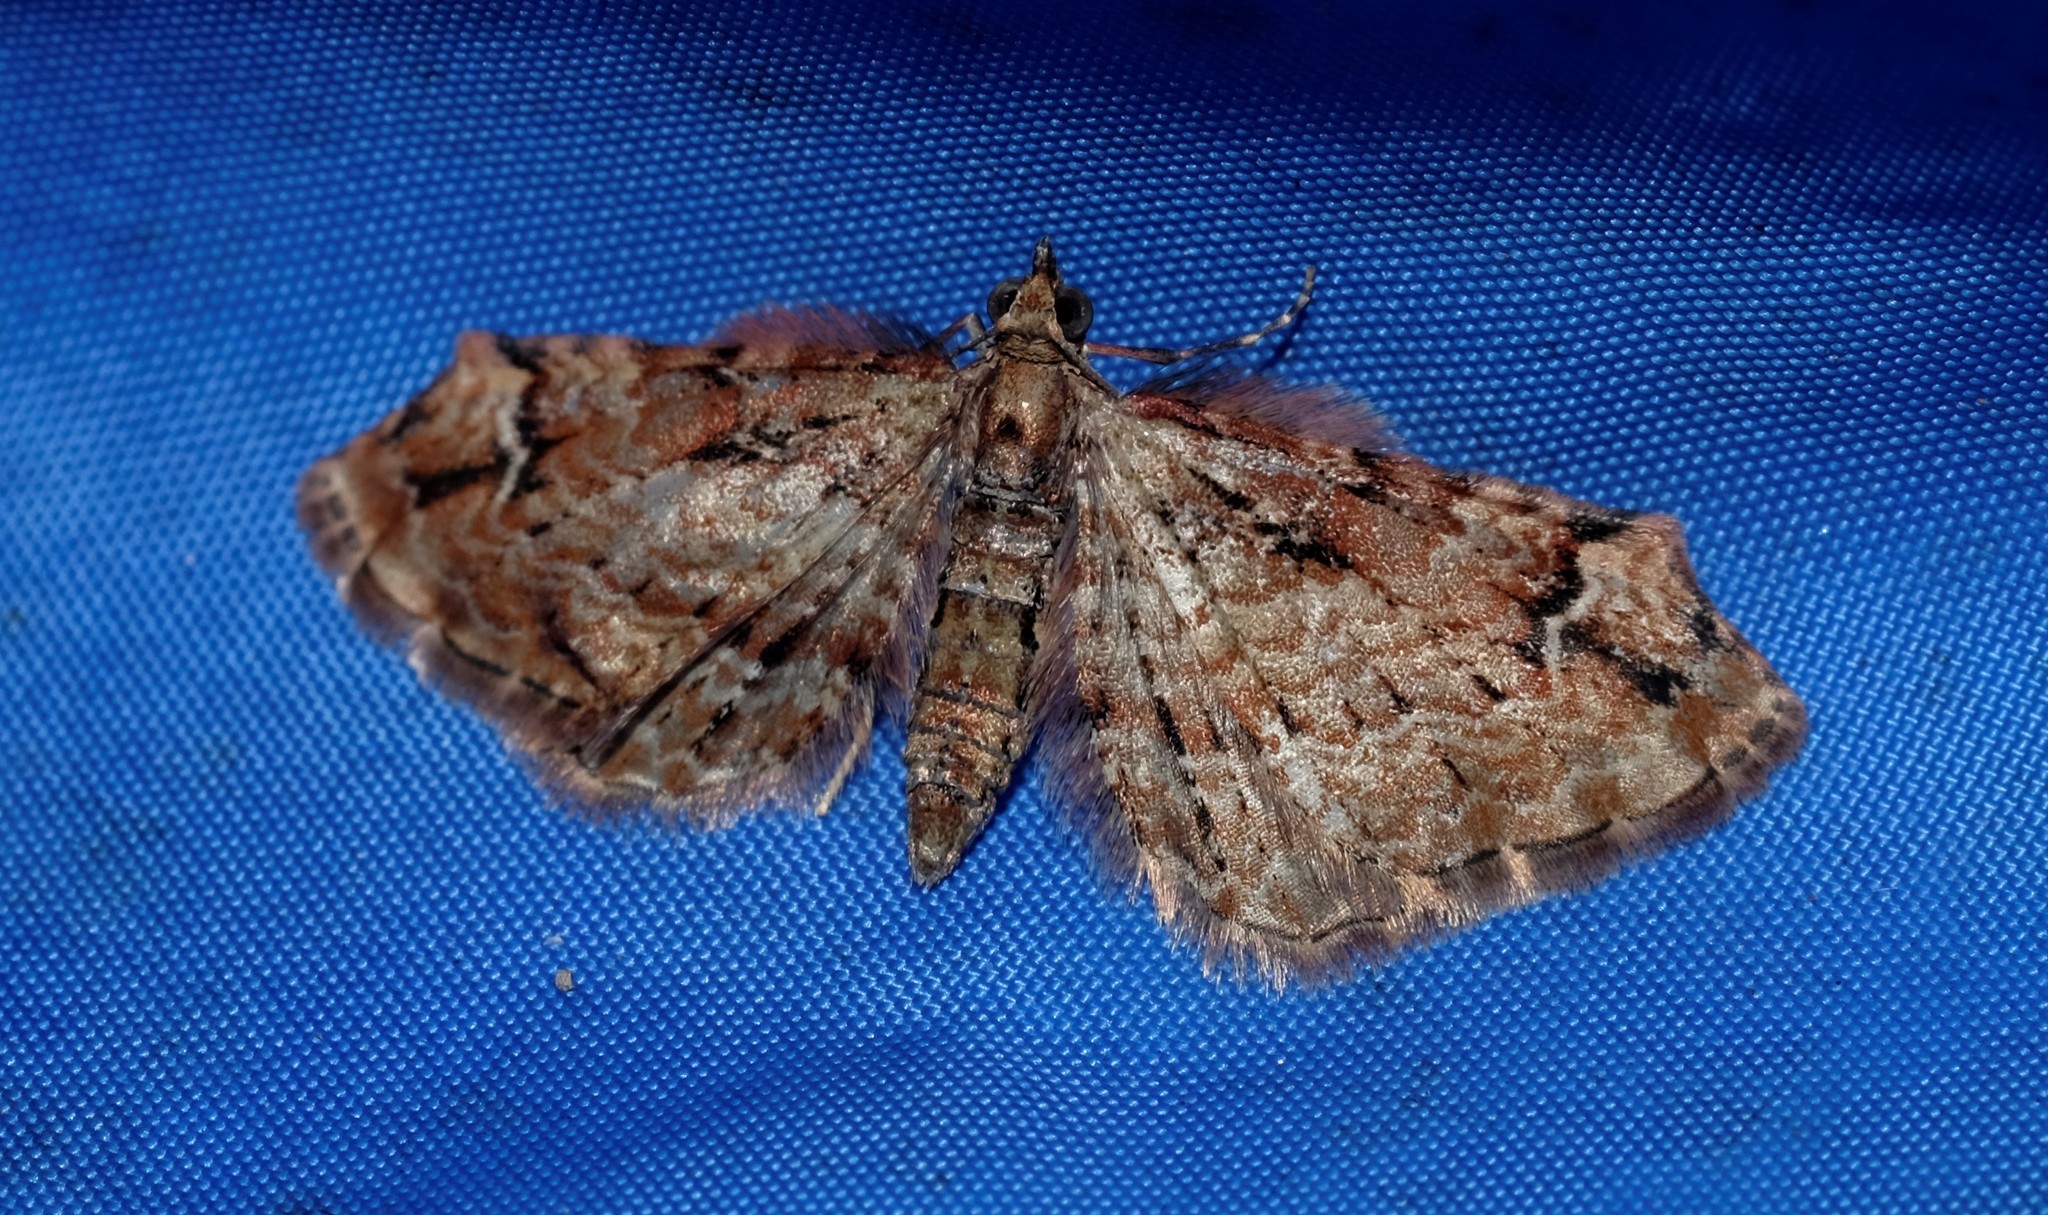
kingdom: Animalia
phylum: Arthropoda
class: Insecta
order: Lepidoptera
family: Geometridae
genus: Chloroclystis
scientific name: Chloroclystis approximata
